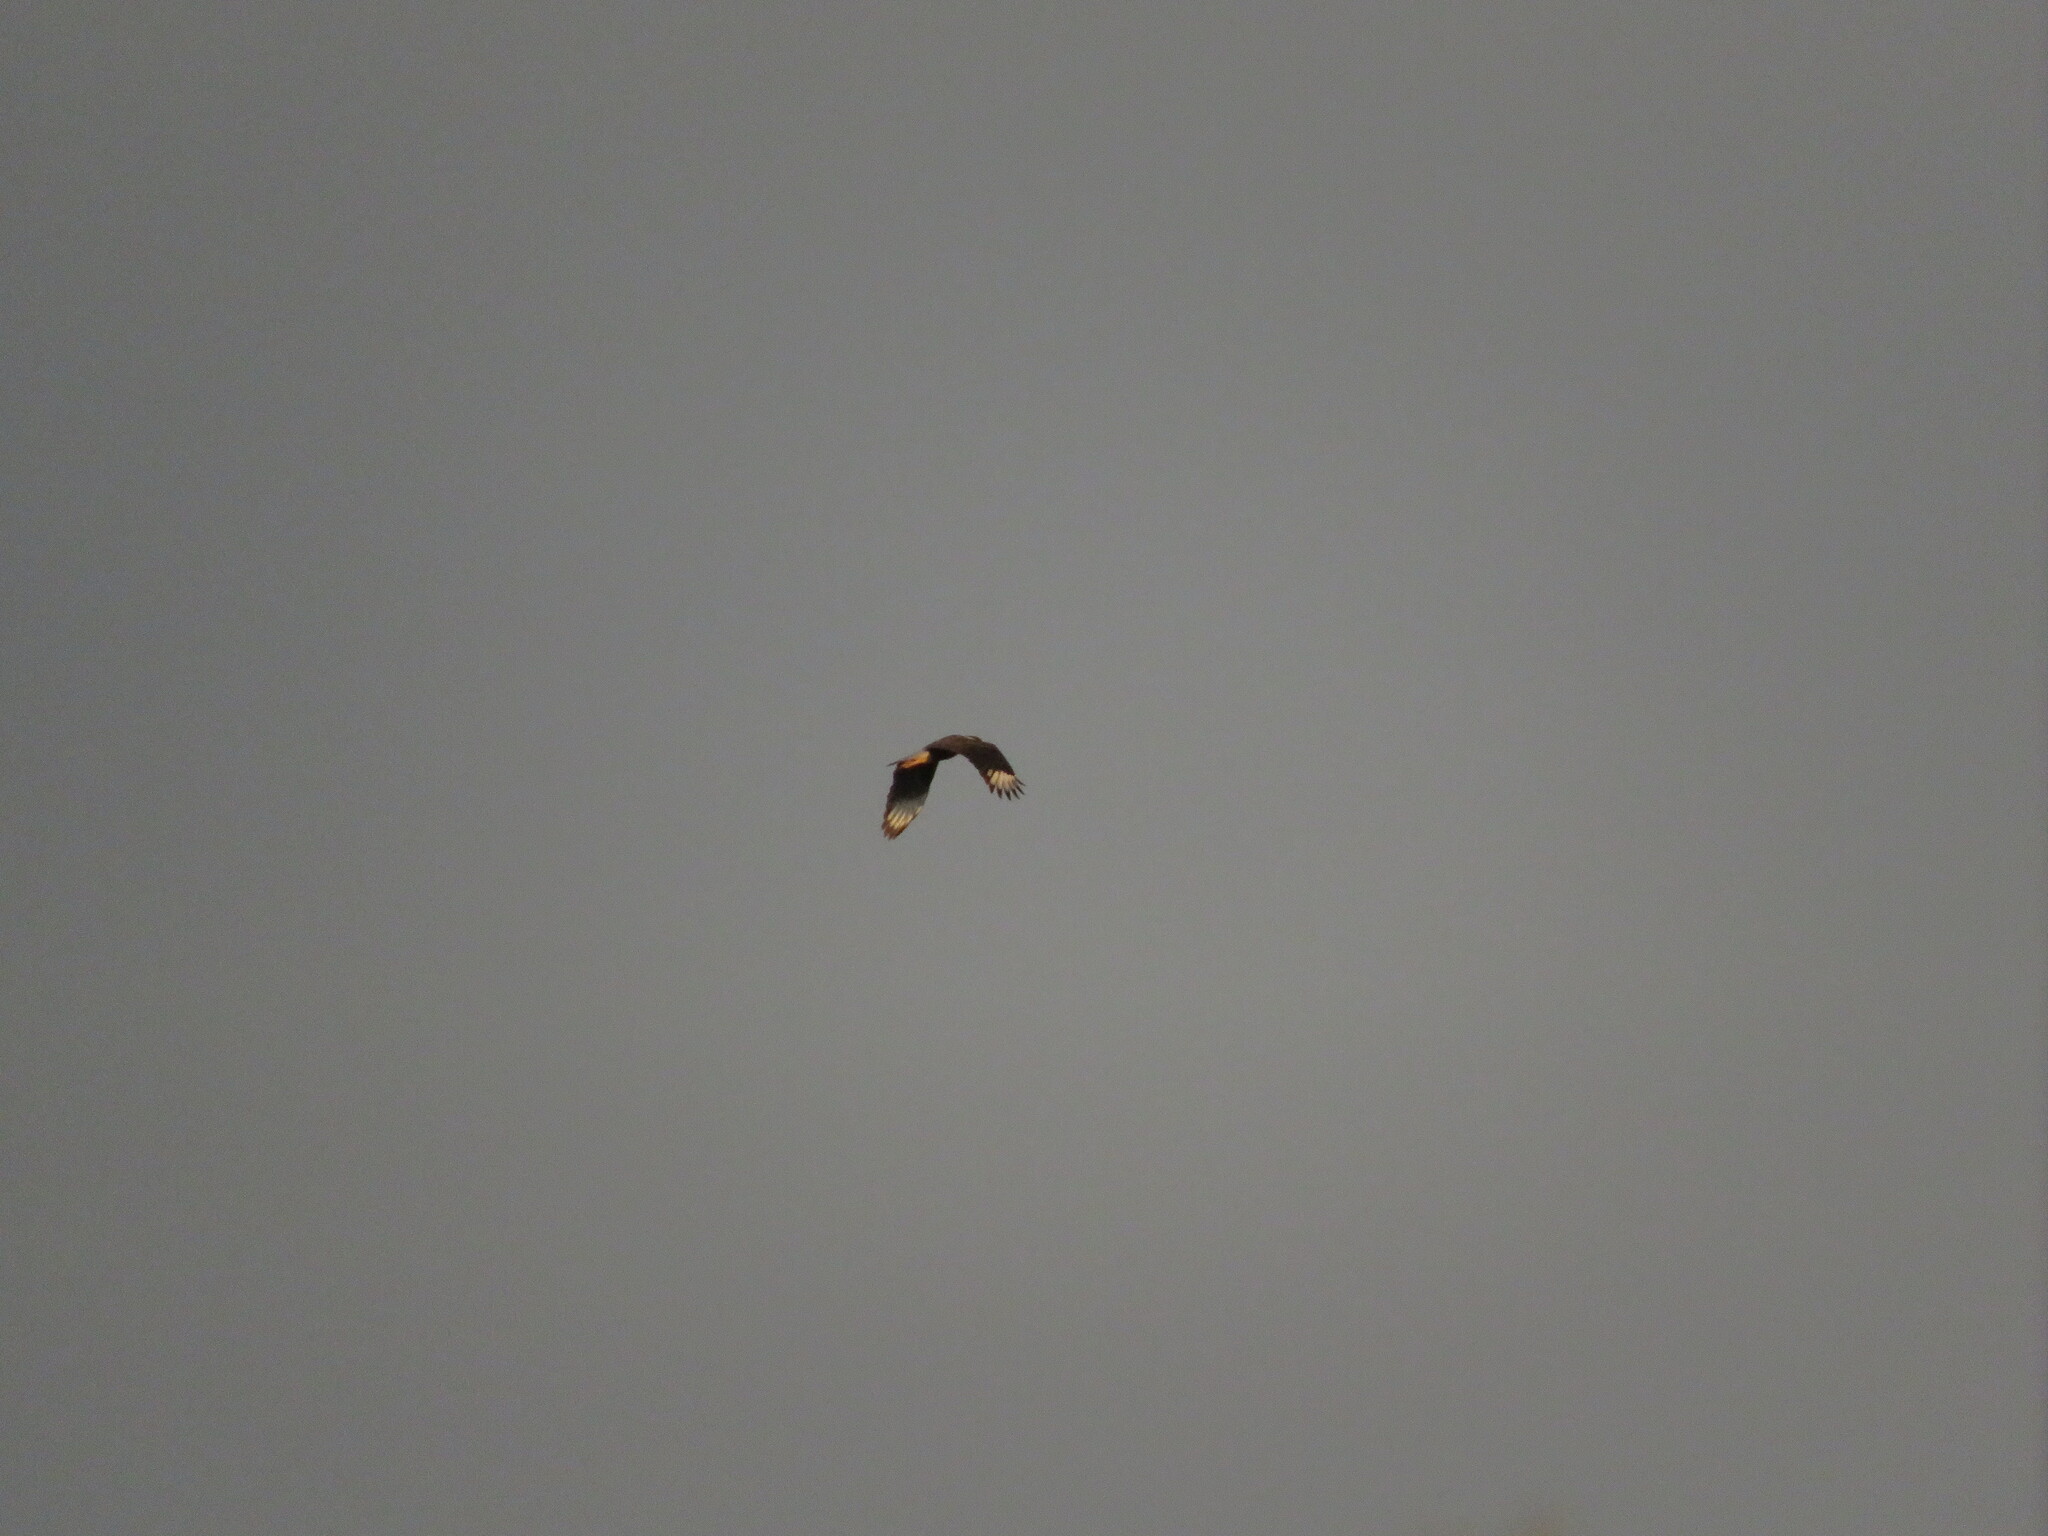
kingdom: Animalia
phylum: Chordata
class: Aves
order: Falconiformes
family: Falconidae
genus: Caracara
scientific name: Caracara plancus
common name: Southern caracara
